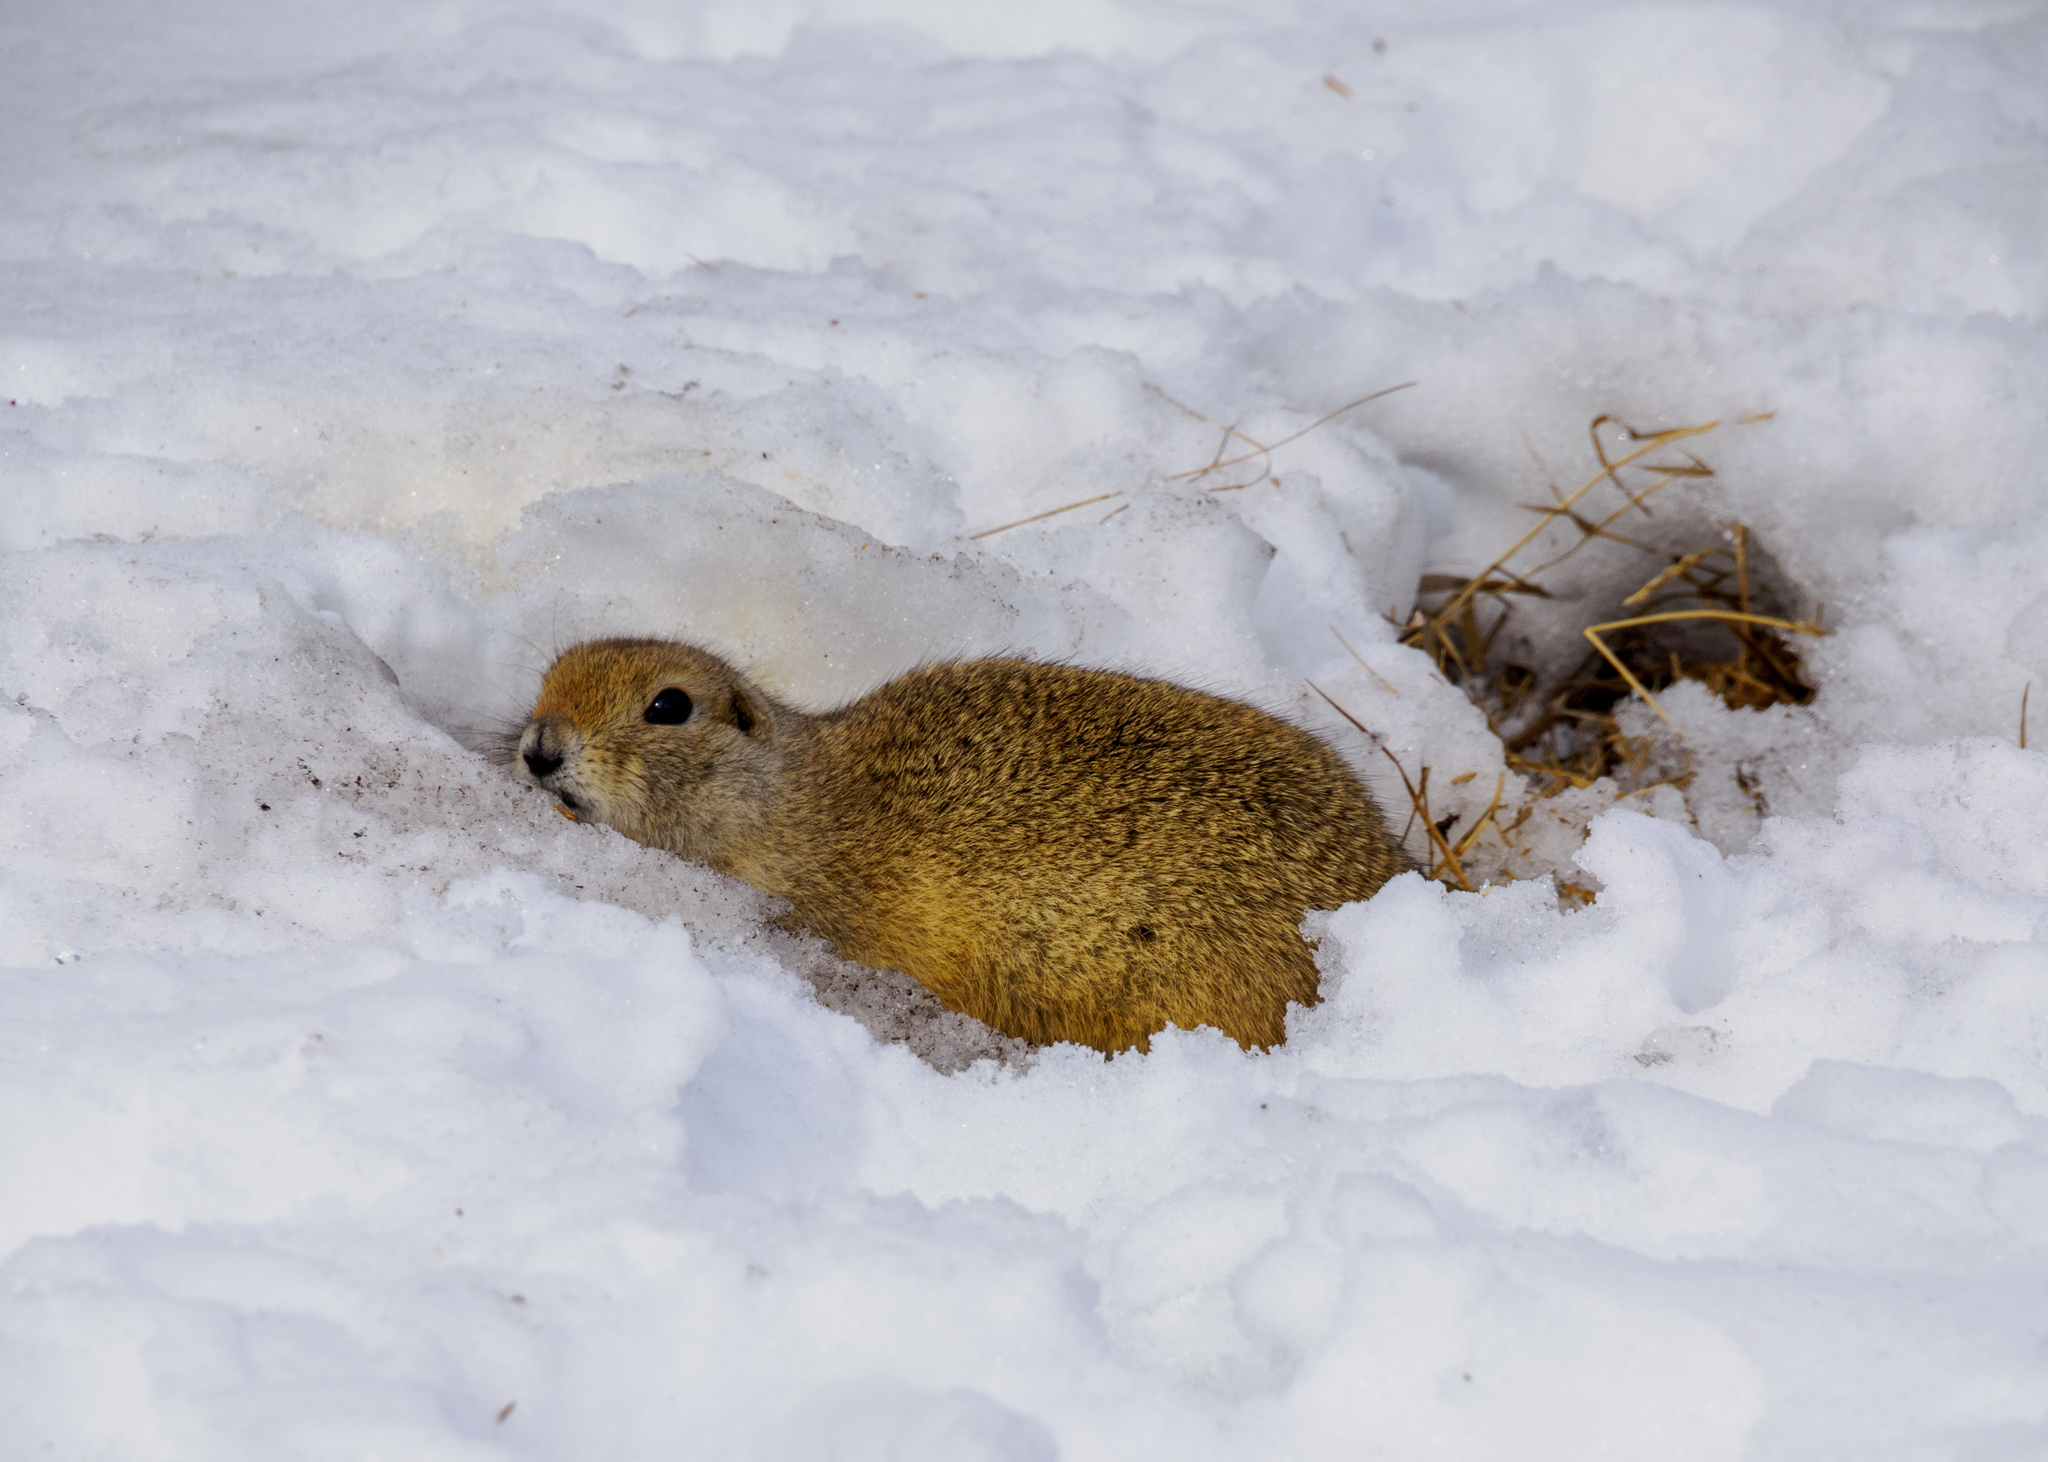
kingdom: Animalia
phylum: Chordata
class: Mammalia
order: Rodentia
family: Sciuridae
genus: Urocitellus
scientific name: Urocitellus richardsonii
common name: Richardson's ground squirrel
